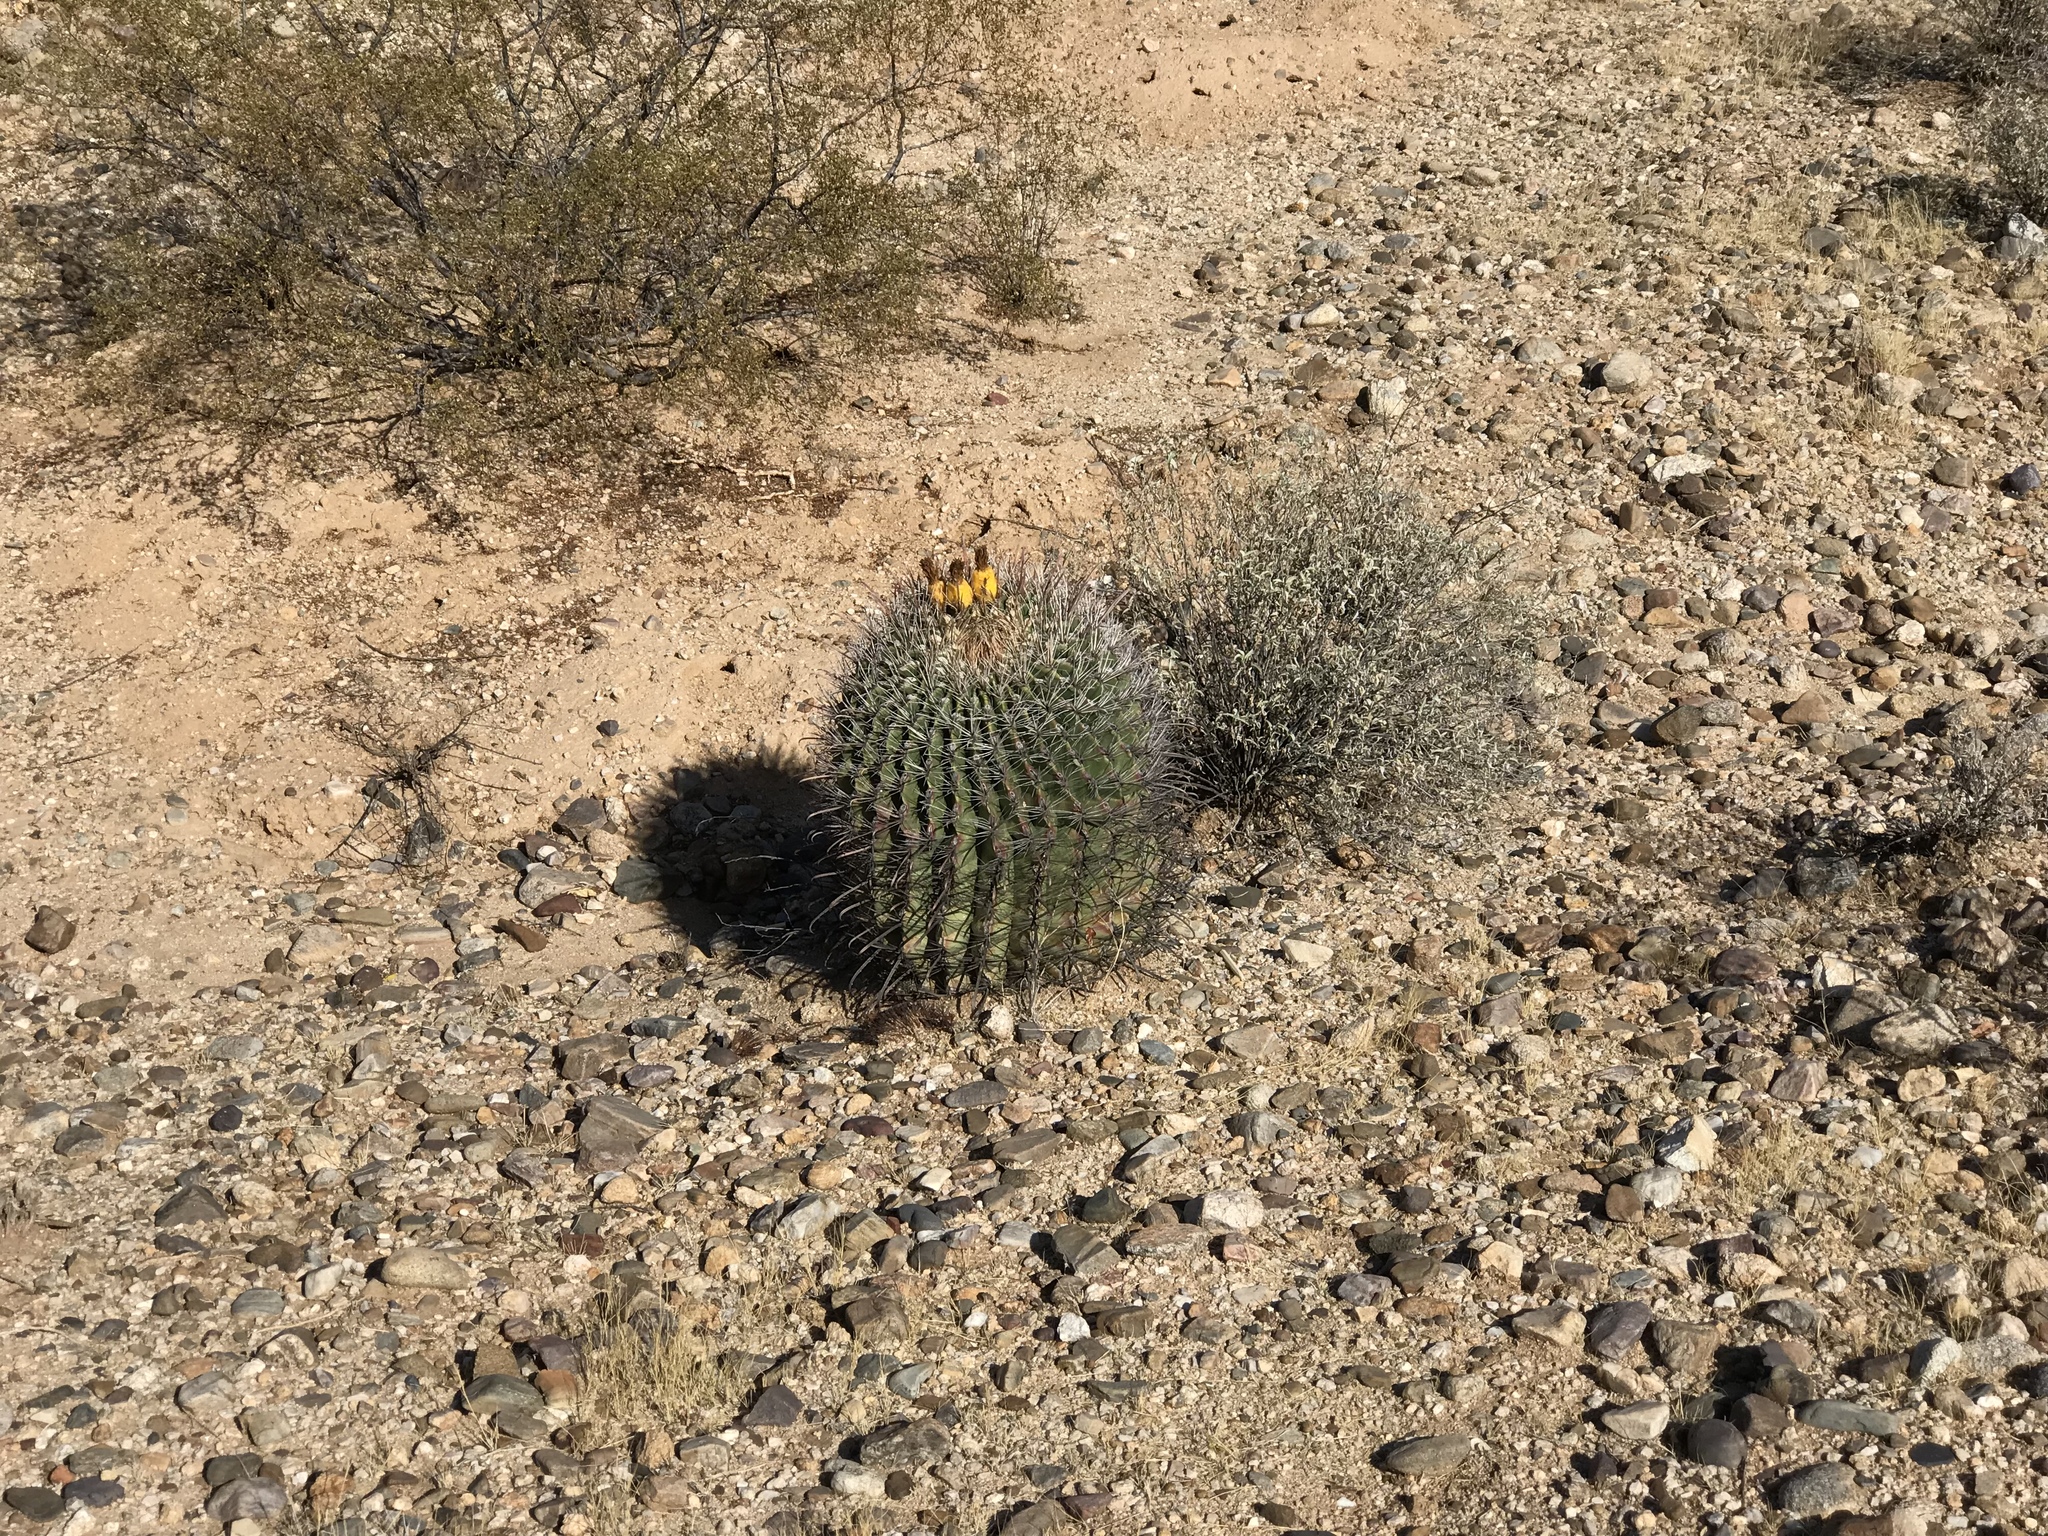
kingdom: Plantae
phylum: Tracheophyta
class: Magnoliopsida
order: Caryophyllales
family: Cactaceae
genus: Ferocactus
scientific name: Ferocactus wislizeni
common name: Candy barrel cactus
